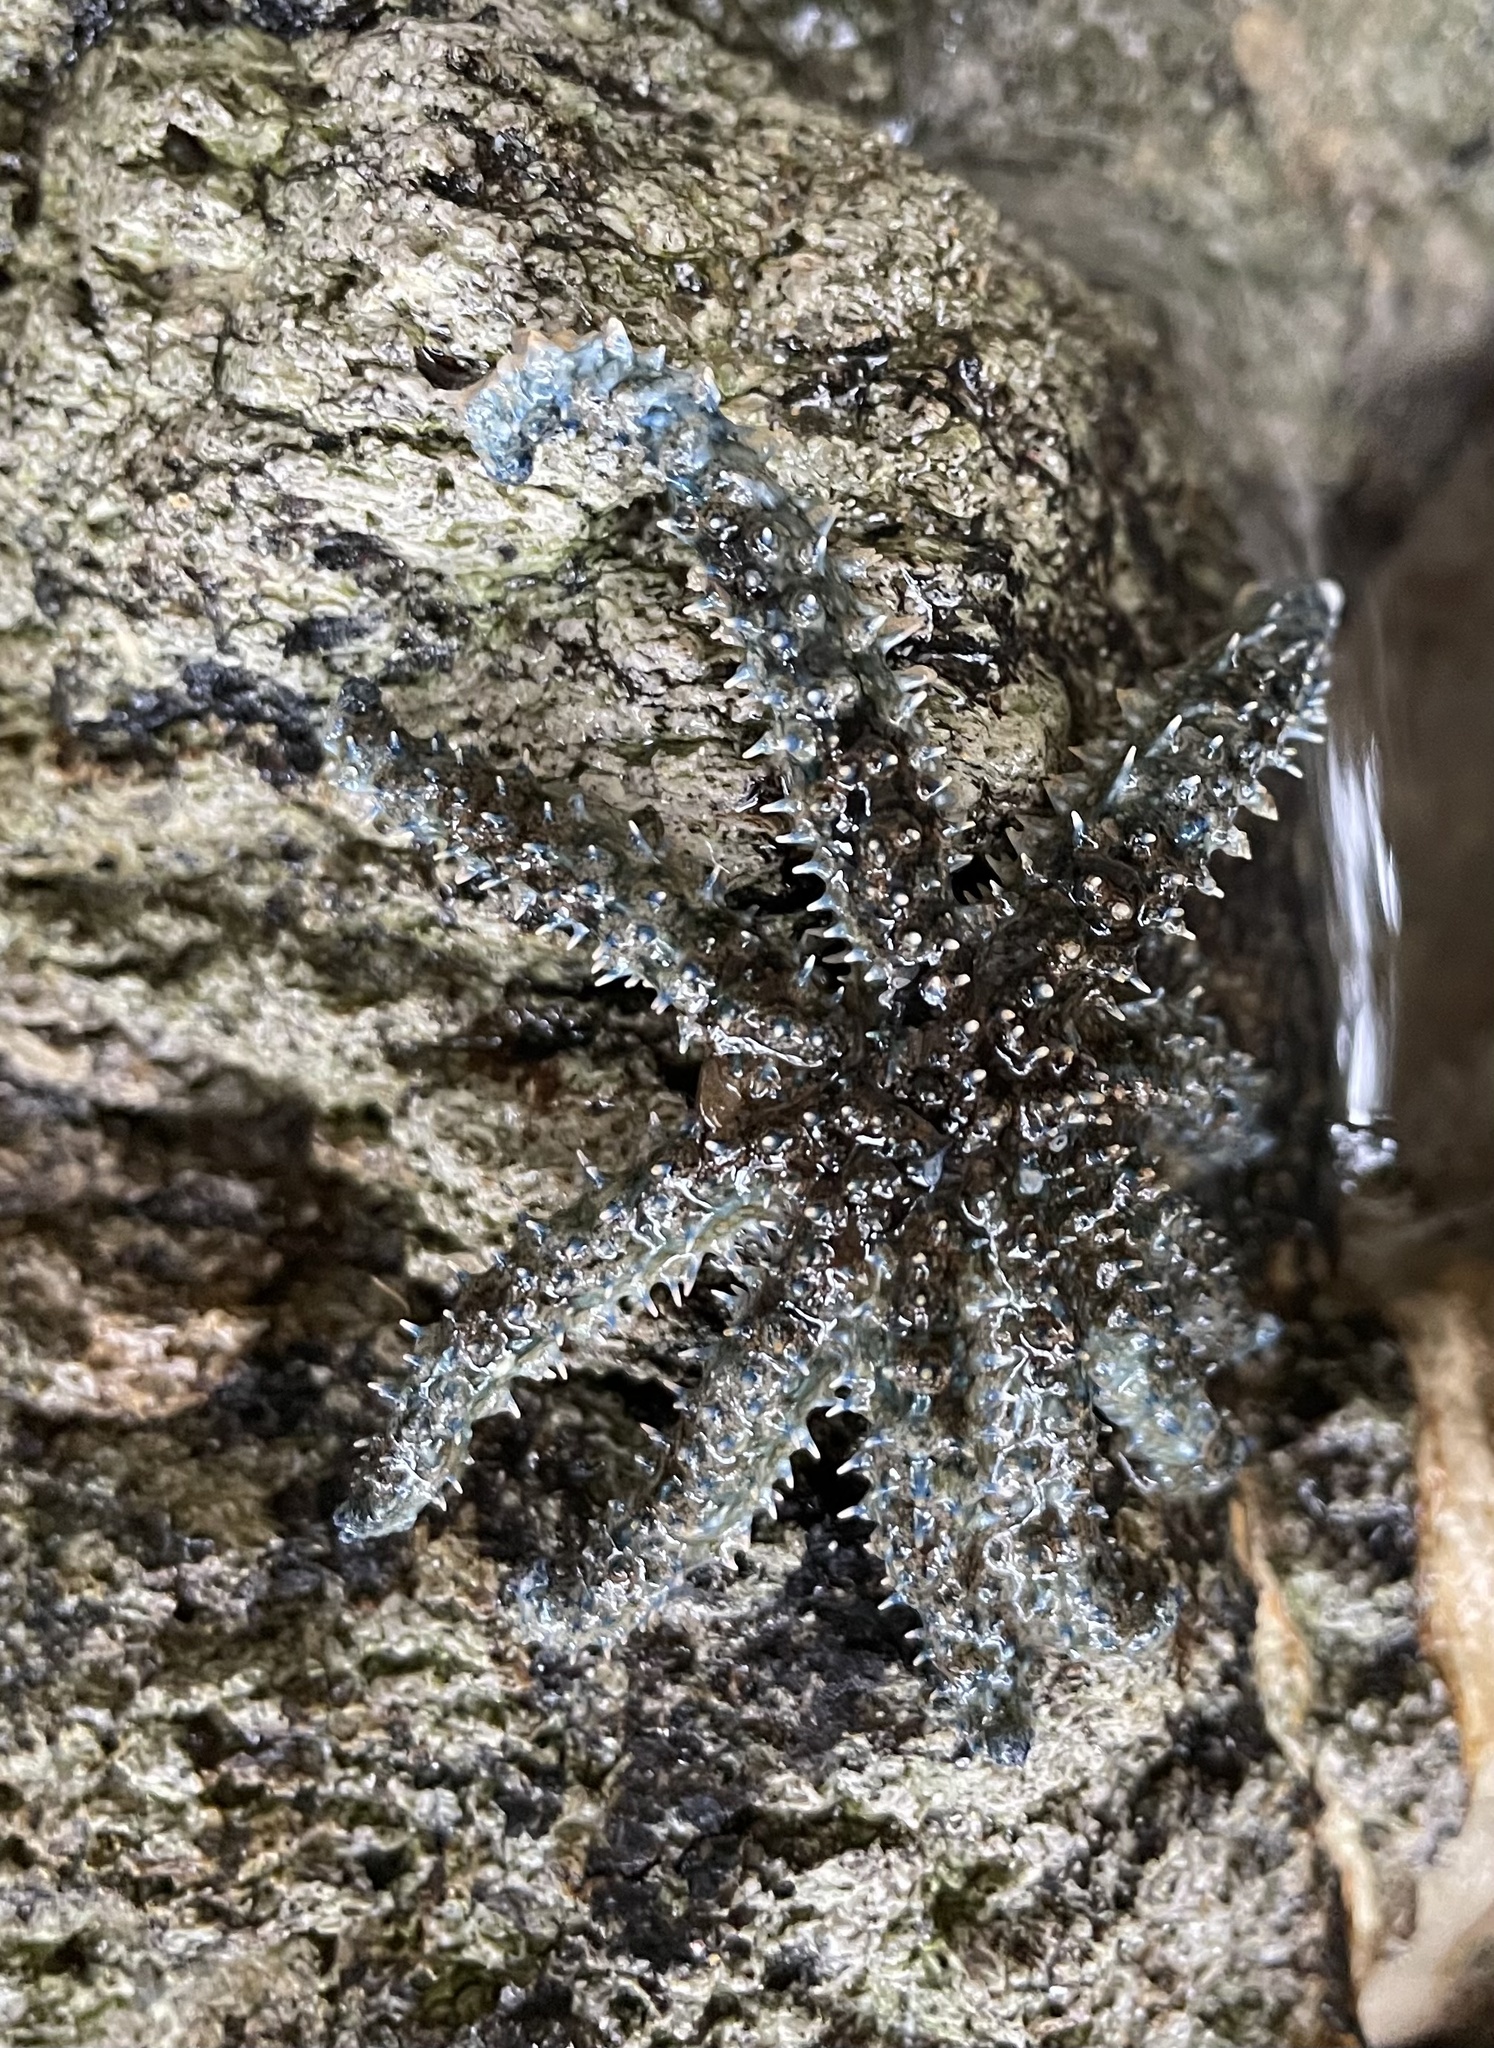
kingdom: Animalia
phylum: Echinodermata
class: Asteroidea
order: Forcipulatida
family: Asteriidae
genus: Coscinasterias
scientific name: Coscinasterias muricata
